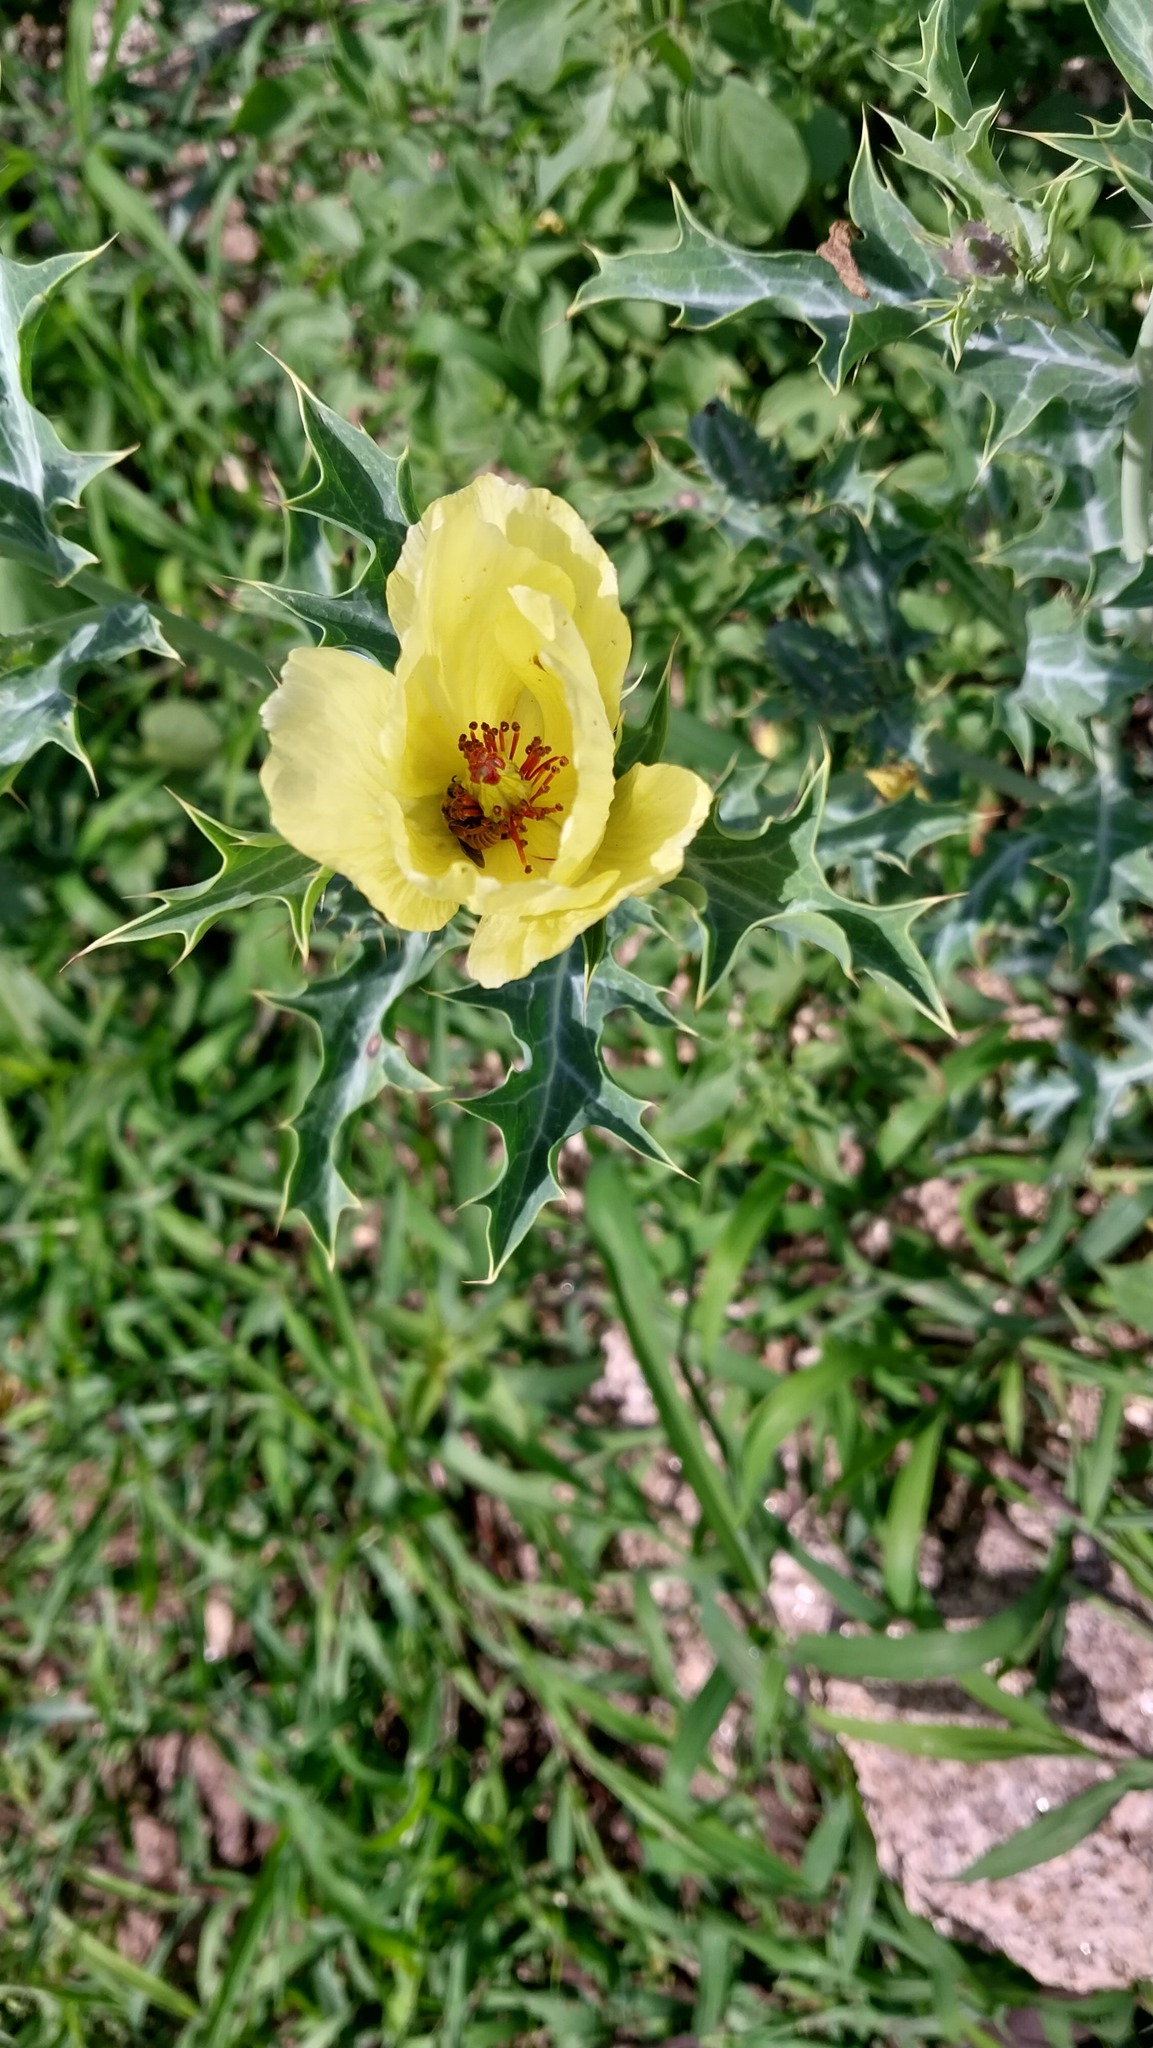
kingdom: Plantae
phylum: Tracheophyta
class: Magnoliopsida
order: Ranunculales
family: Papaveraceae
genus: Argemone
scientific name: Argemone subfusiformis
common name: American-poppy
